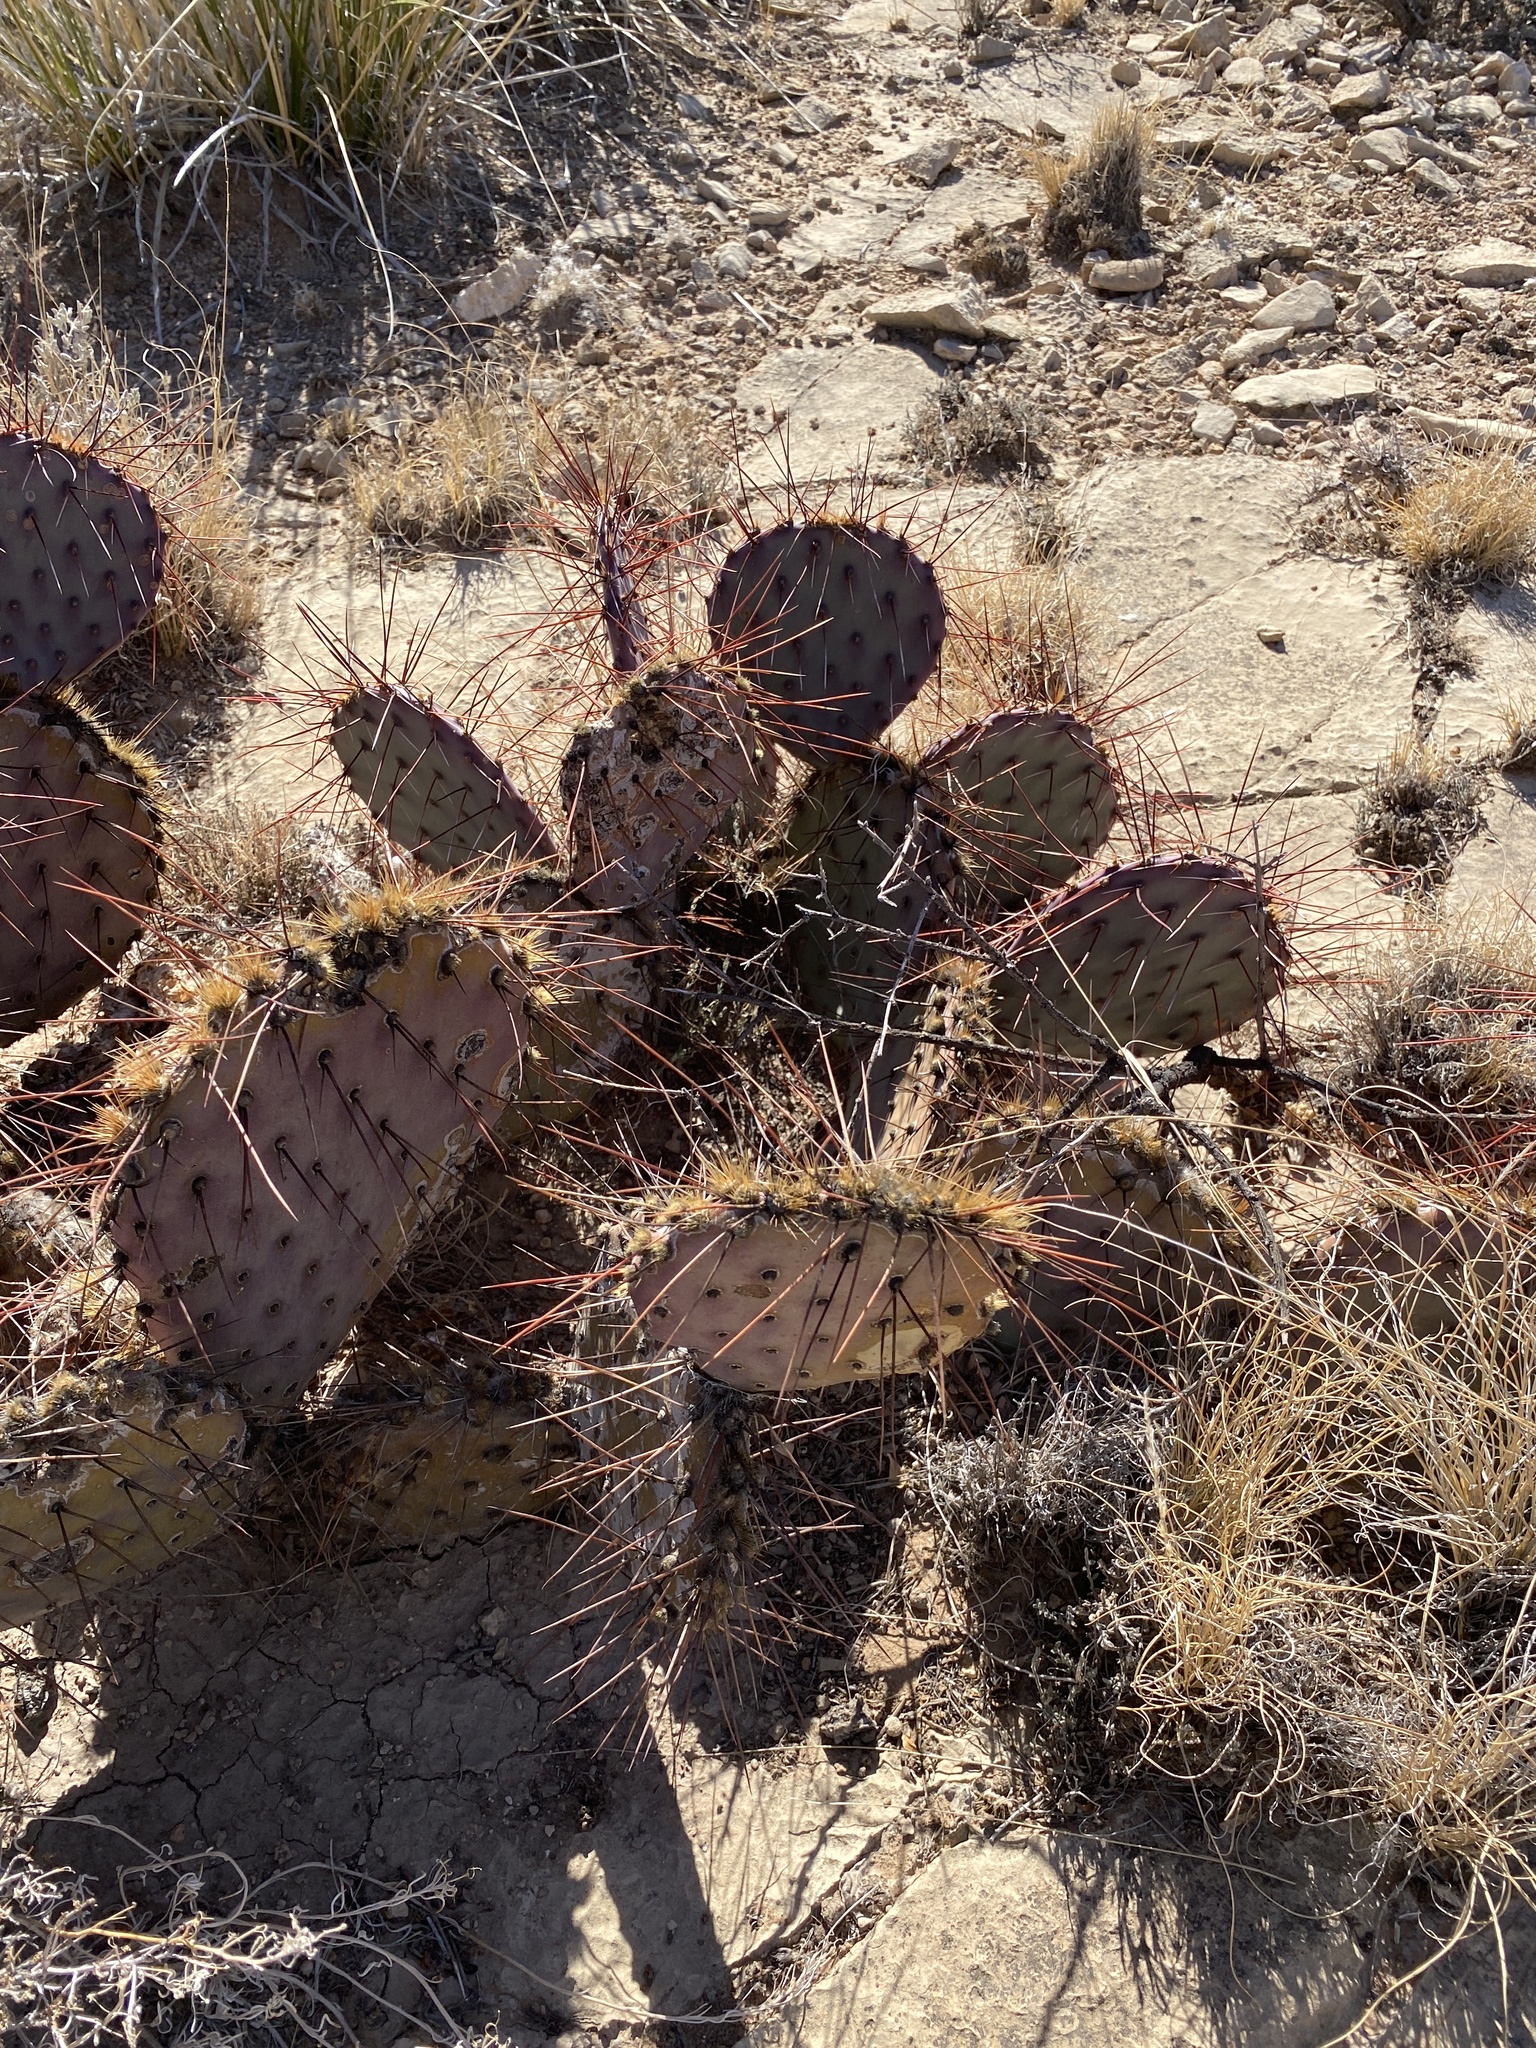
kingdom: Plantae
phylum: Tracheophyta
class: Magnoliopsida
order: Caryophyllales
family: Cactaceae
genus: Opuntia
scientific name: Opuntia macrocentra
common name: Purple prickly-pear
